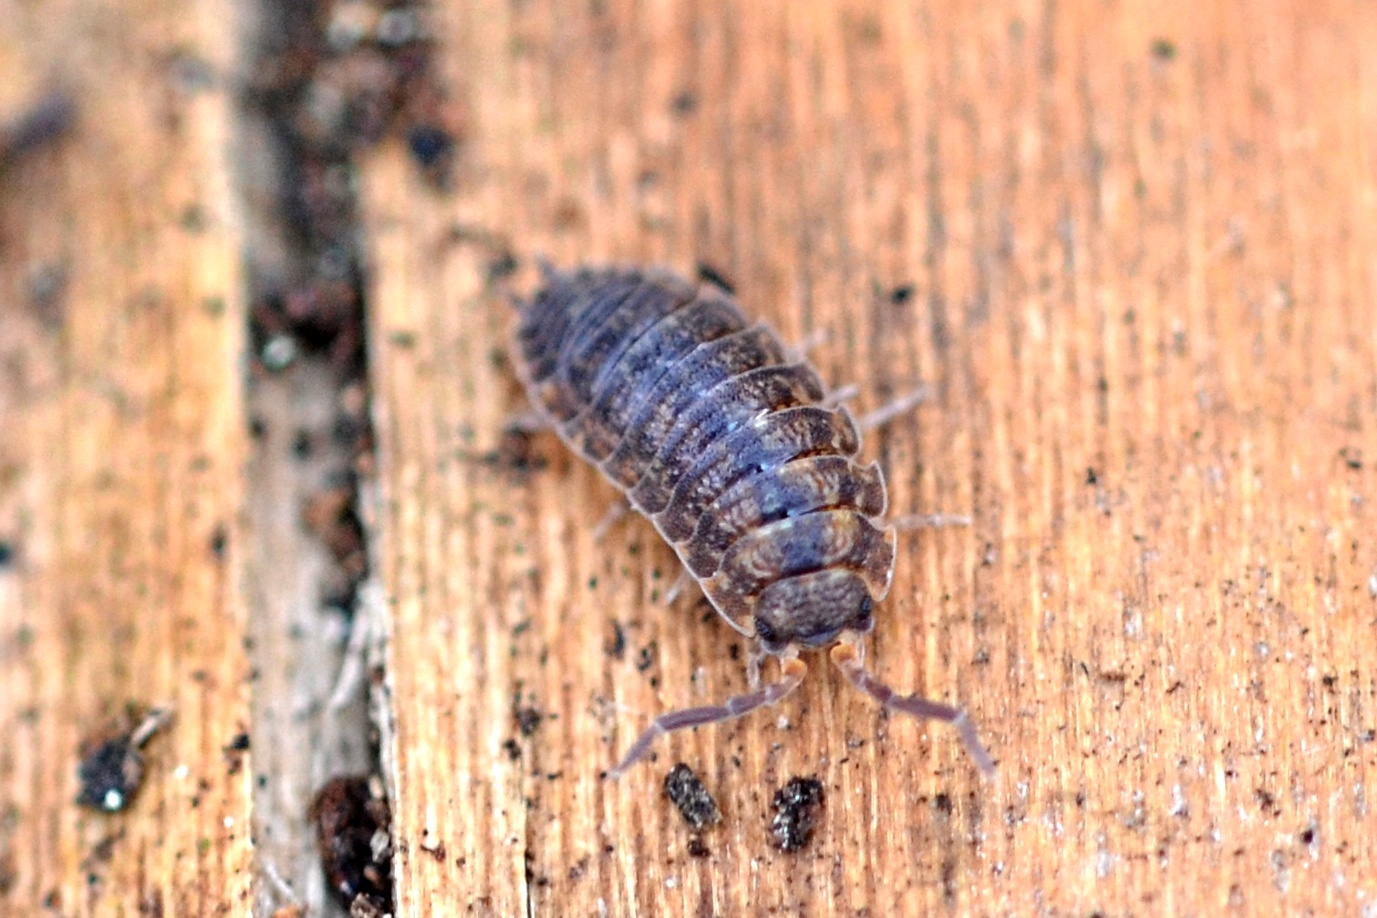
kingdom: Animalia
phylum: Arthropoda
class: Malacostraca
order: Isopoda
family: Porcellionidae
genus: Porcellio
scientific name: Porcellio scaber
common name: Common rough woodlouse
